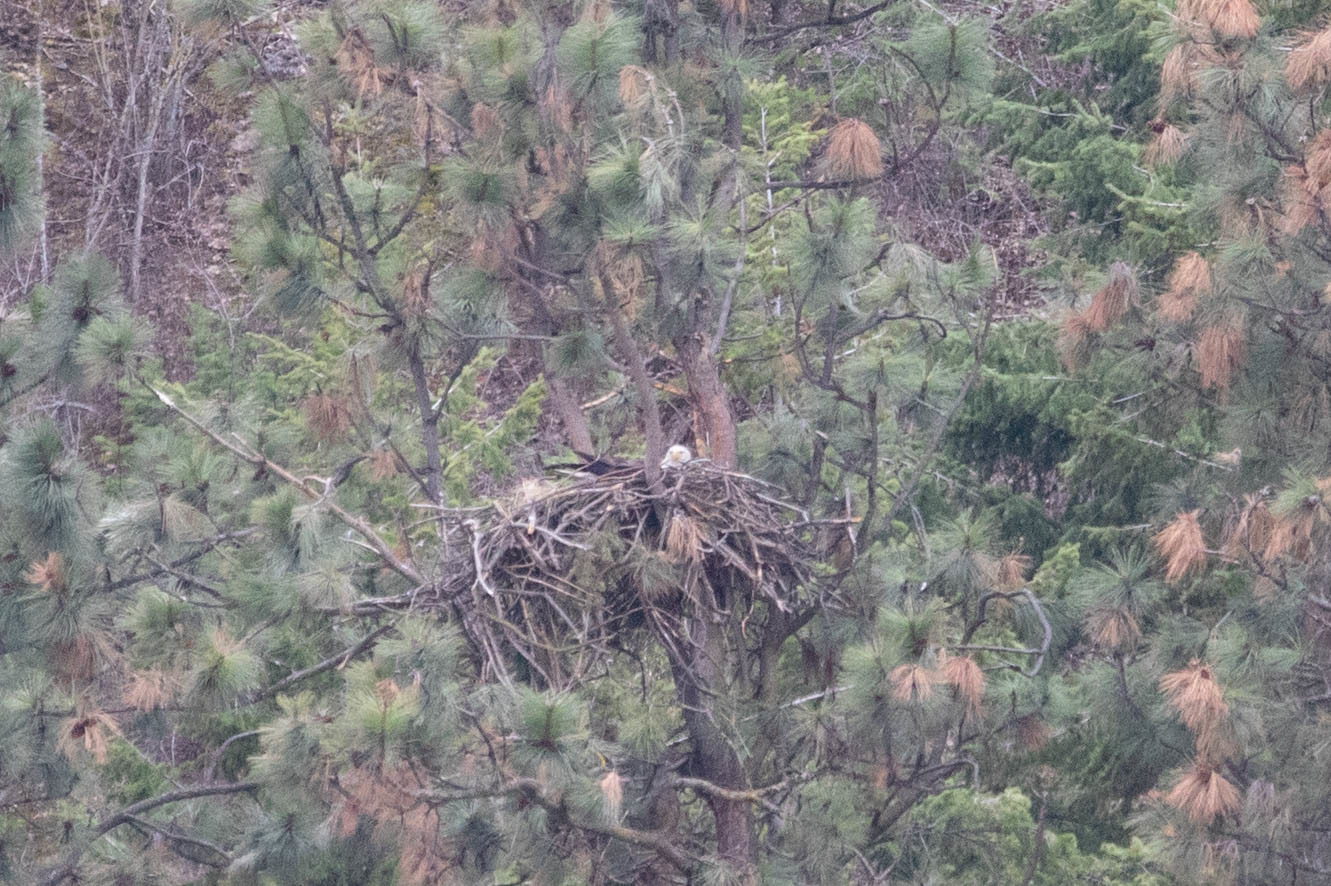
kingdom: Animalia
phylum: Chordata
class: Aves
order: Accipitriformes
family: Accipitridae
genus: Haliaeetus
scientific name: Haliaeetus leucocephalus
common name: Bald eagle
